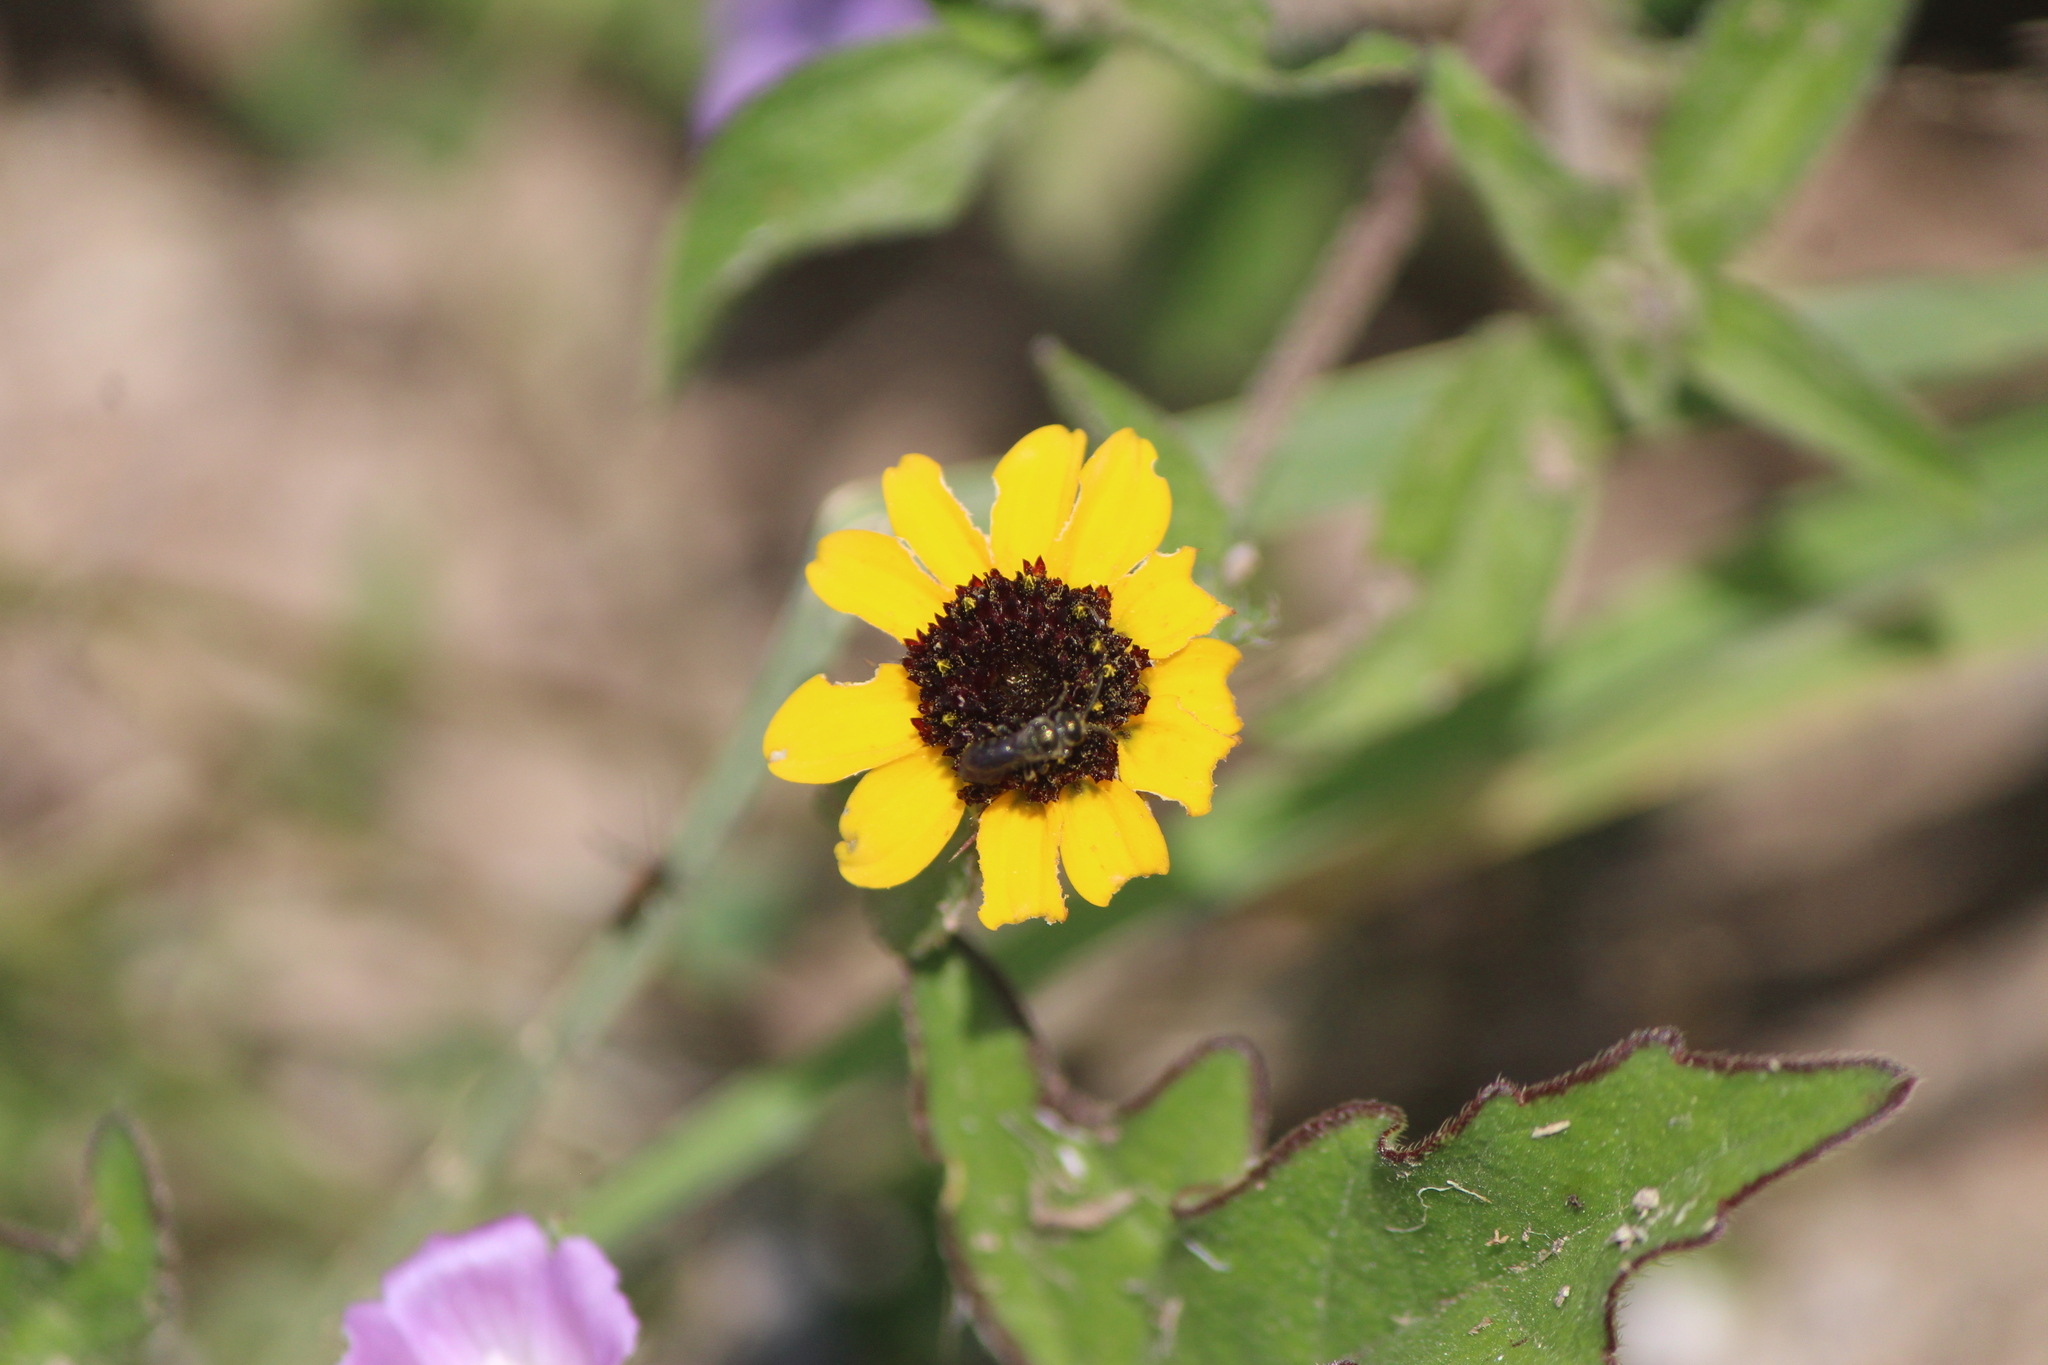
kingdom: Plantae
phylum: Tracheophyta
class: Magnoliopsida
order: Asterales
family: Asteraceae
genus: Sanvitalia
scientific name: Sanvitalia procumbens
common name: Mexican creeping zinnia
